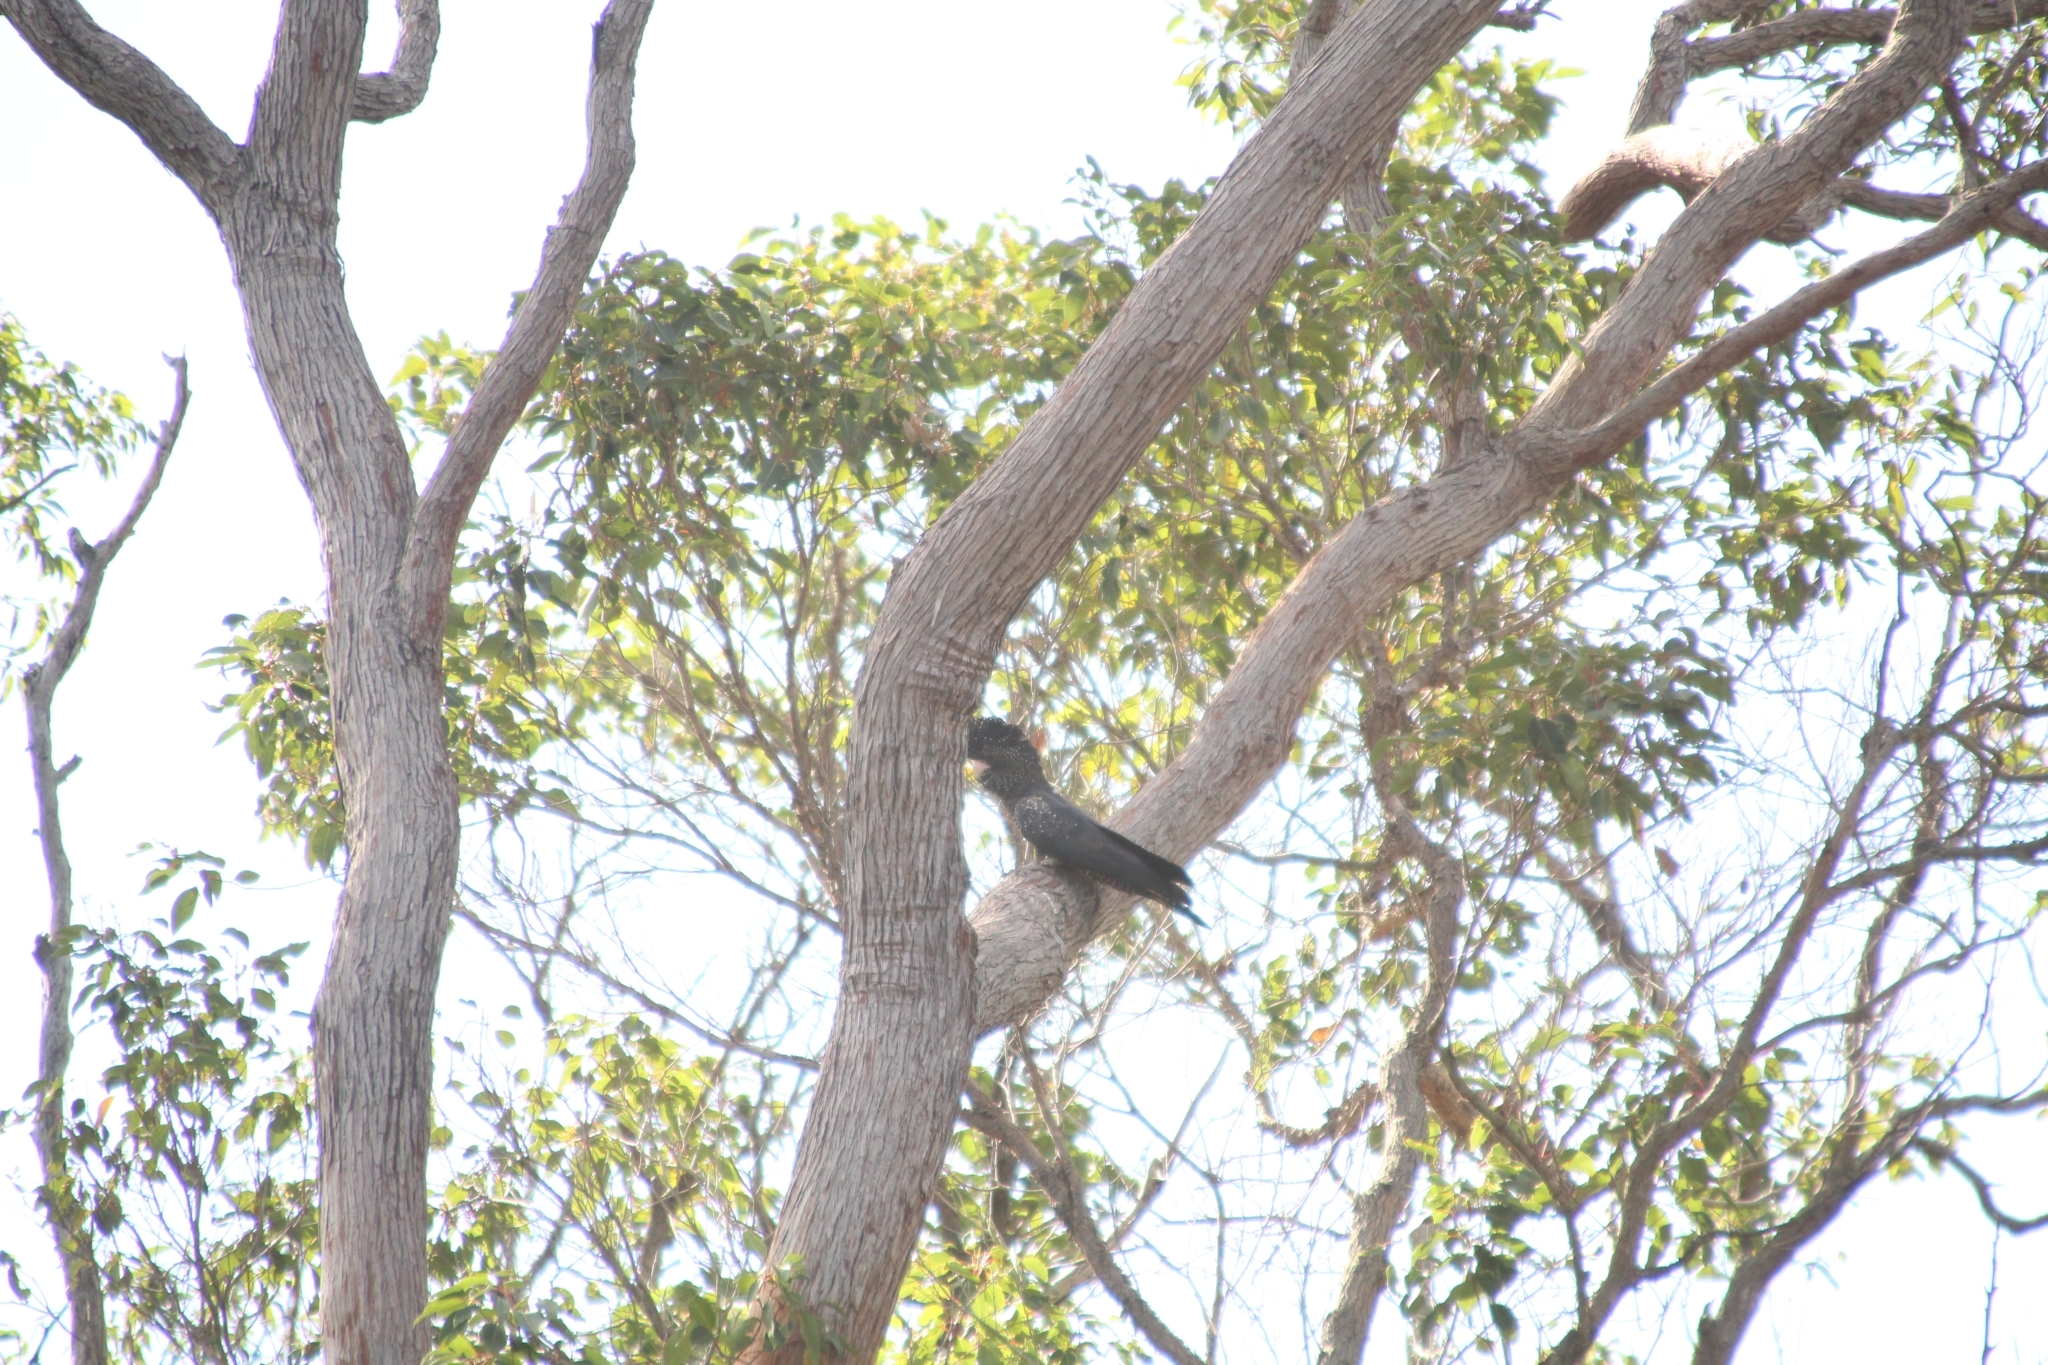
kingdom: Animalia
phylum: Chordata
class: Aves
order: Psittaciformes
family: Psittacidae
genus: Calyptorhynchus
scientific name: Calyptorhynchus banksii
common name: Red-tailed black cockatoo
